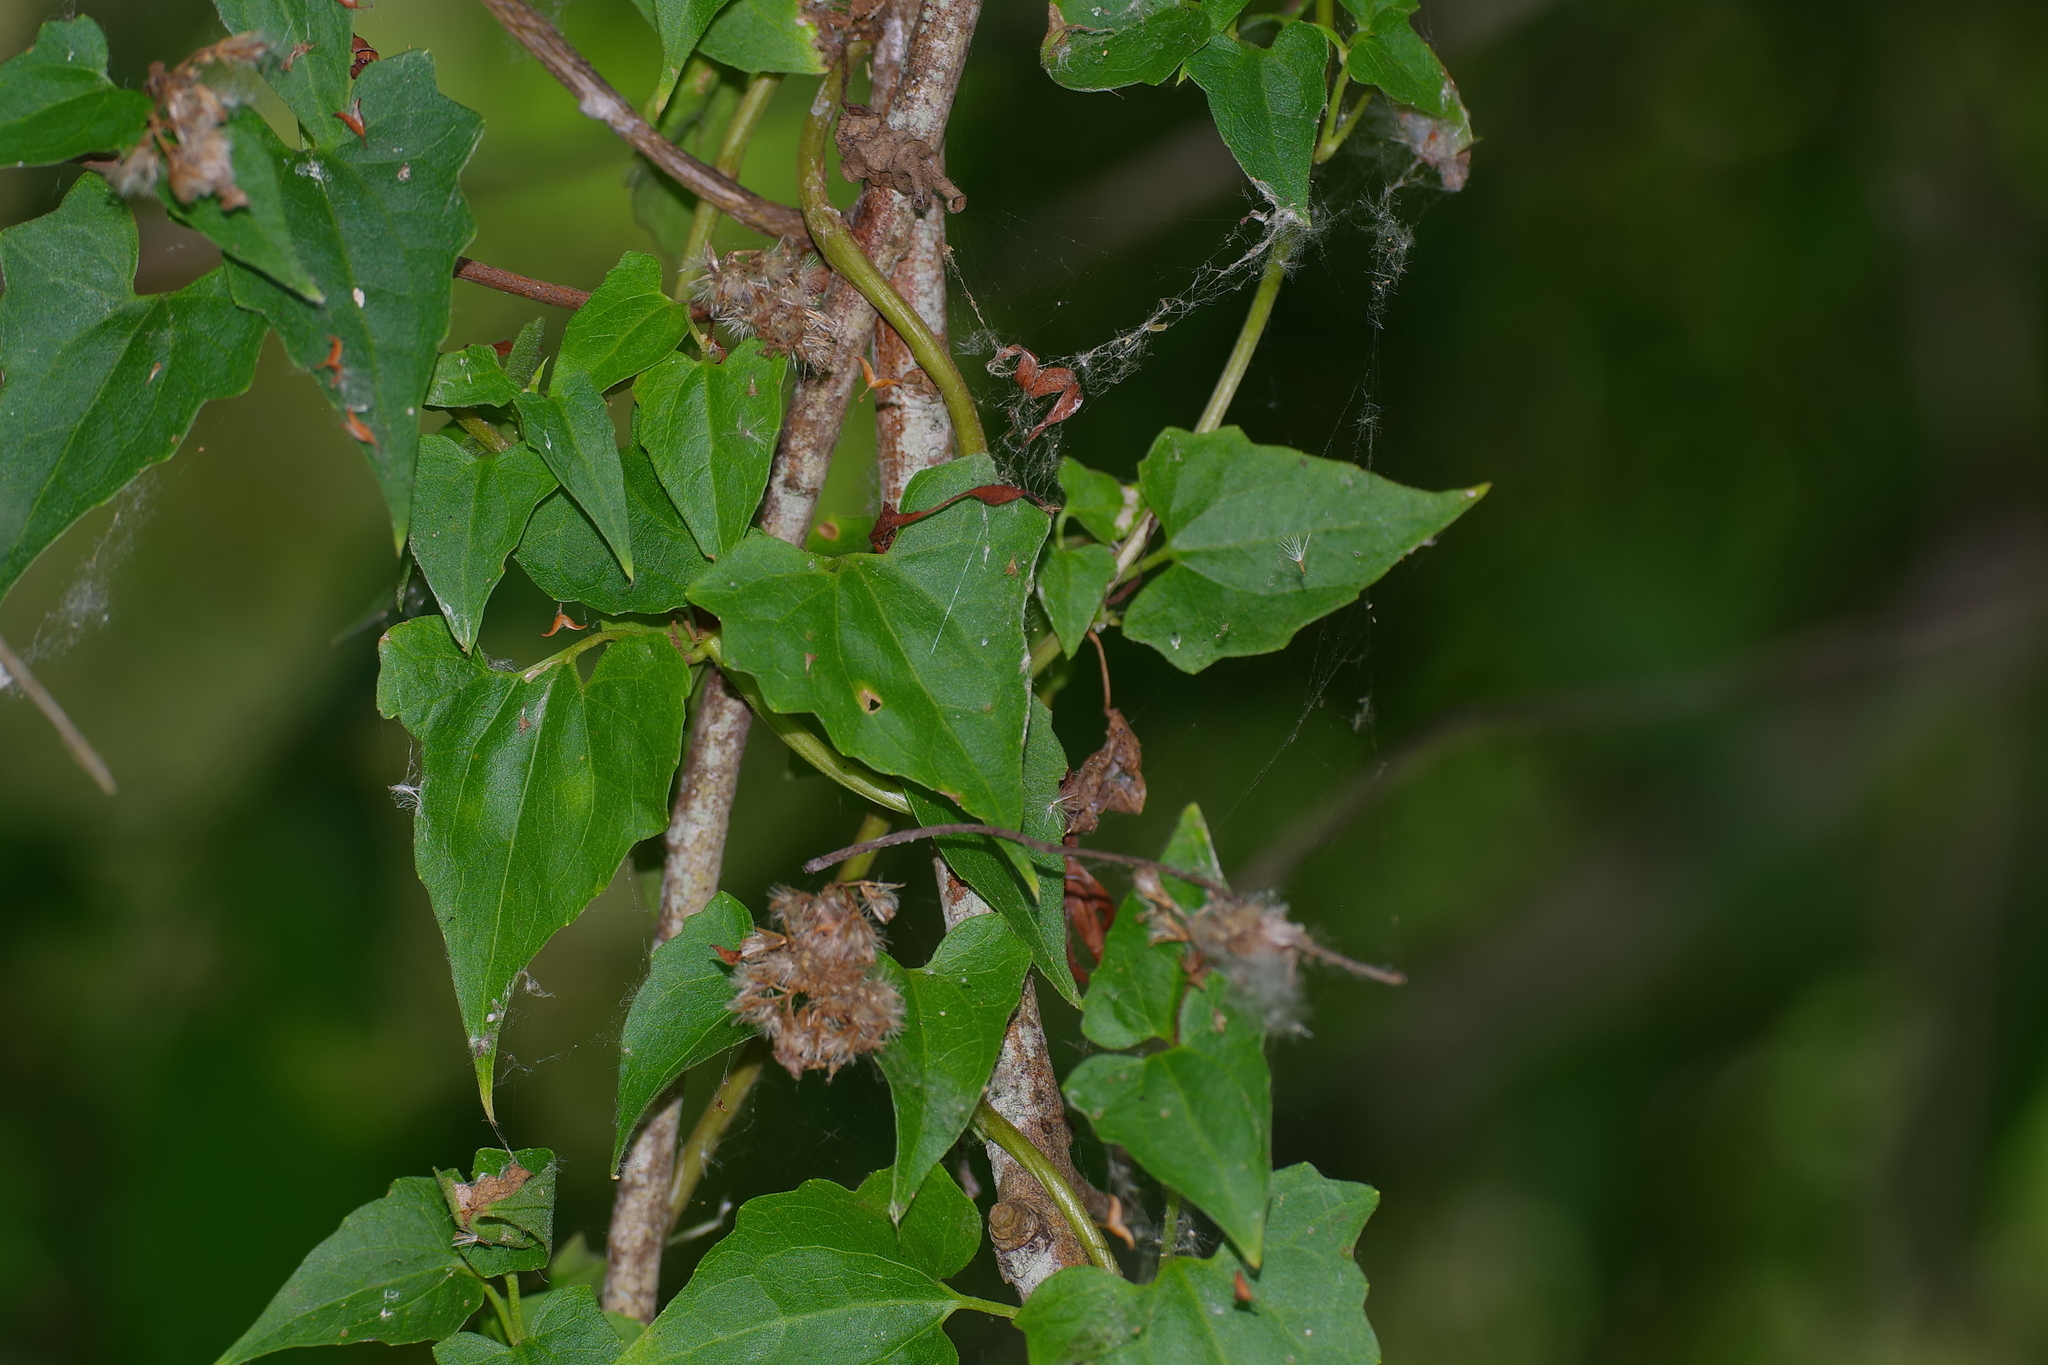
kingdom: Plantae
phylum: Tracheophyta
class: Magnoliopsida
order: Asterales
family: Asteraceae
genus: Mikania
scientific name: Mikania scandens
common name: Climbing hempvine
